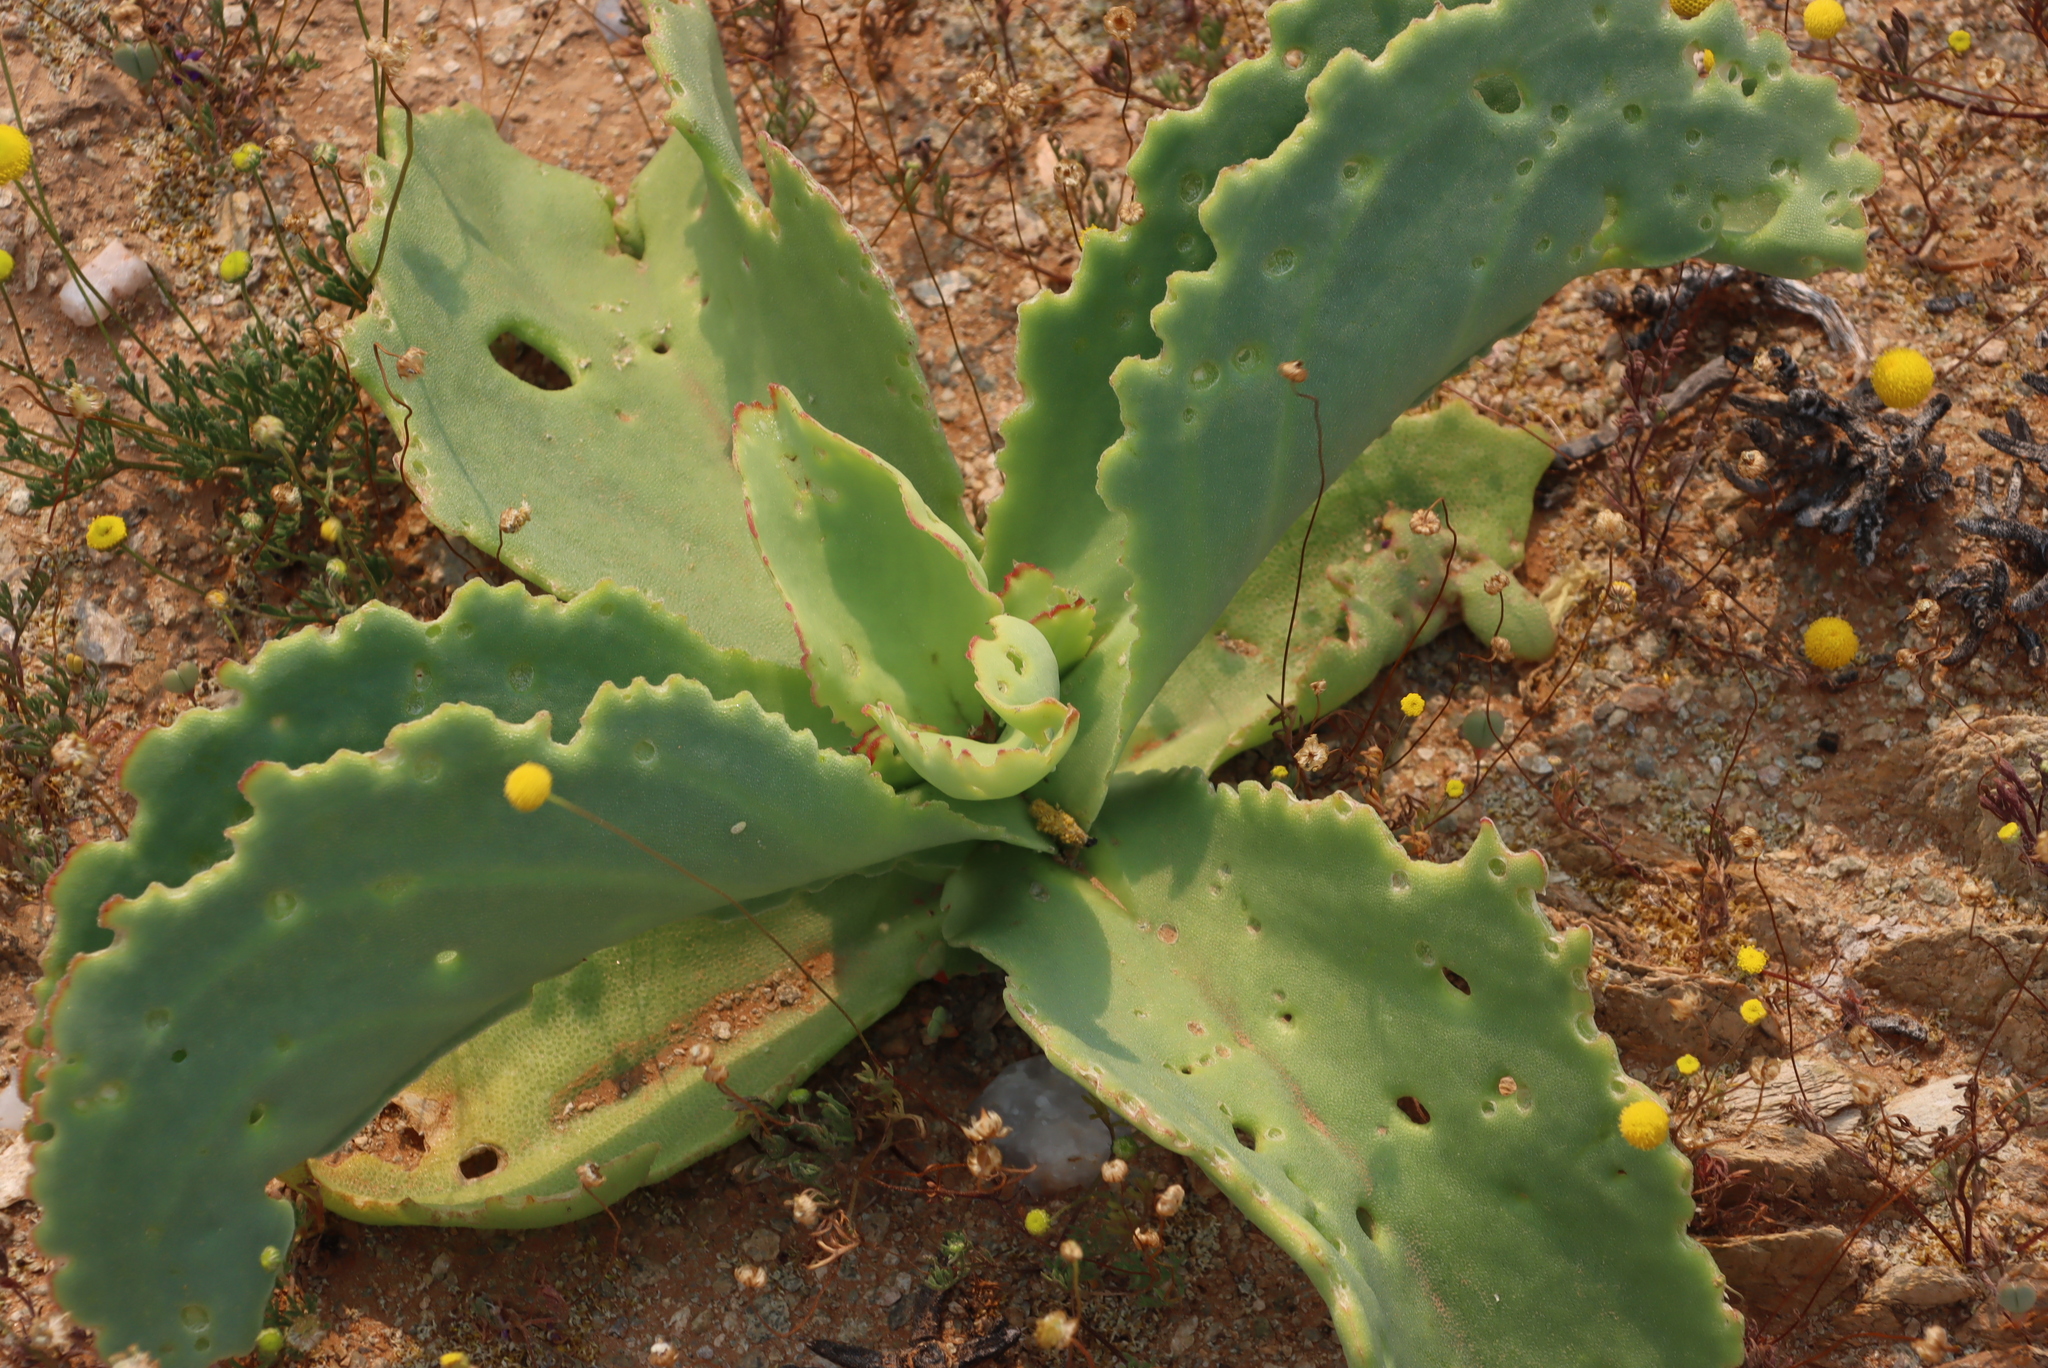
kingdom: Plantae
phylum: Tracheophyta
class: Magnoliopsida
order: Caryophyllales
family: Aizoaceae
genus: Mesembryanthemum
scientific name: Mesembryanthemum barklyi
